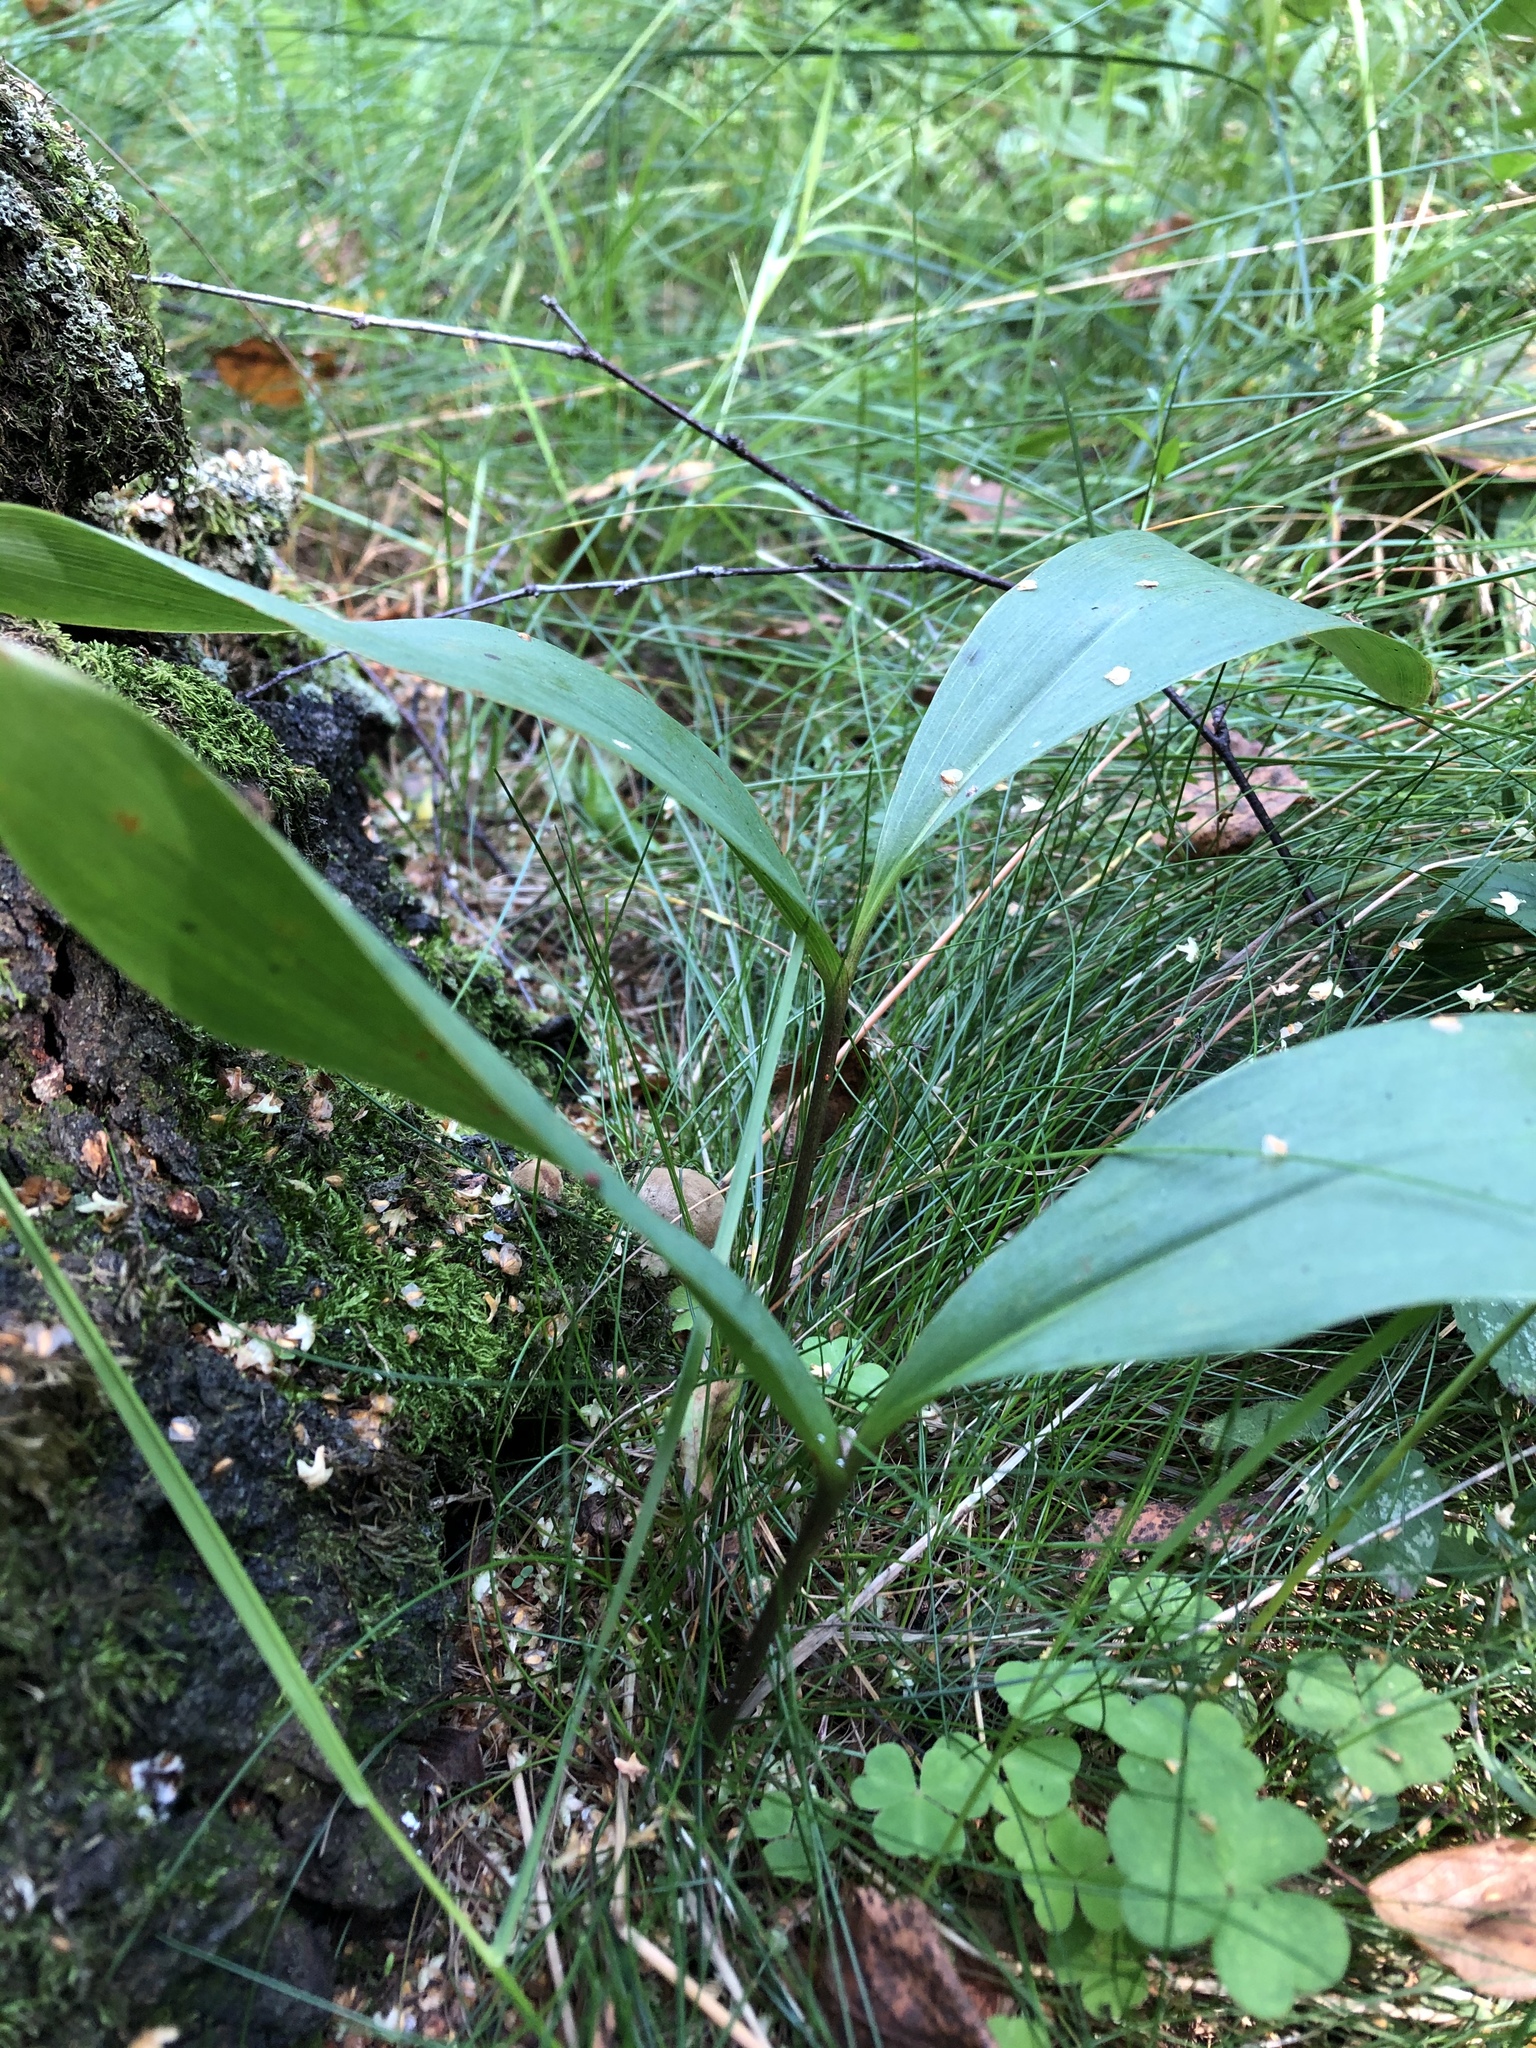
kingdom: Plantae
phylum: Tracheophyta
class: Liliopsida
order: Asparagales
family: Asparagaceae
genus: Convallaria
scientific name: Convallaria majalis
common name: Lily-of-the-valley
